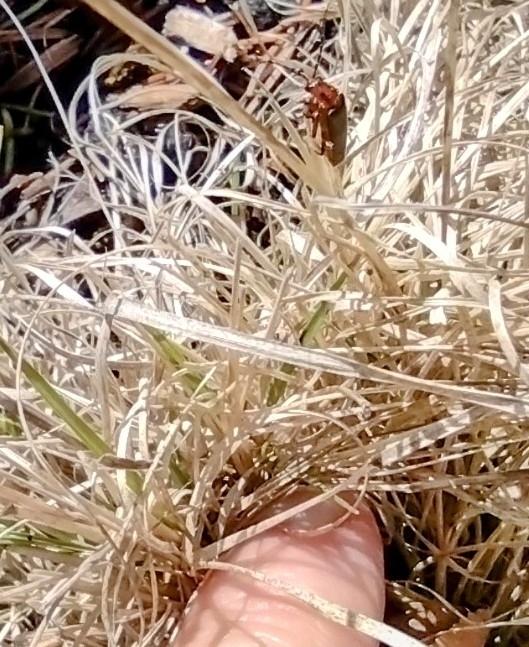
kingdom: Animalia
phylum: Arthropoda
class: Insecta
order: Coleoptera
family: Cantharidae
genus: Atalantycha
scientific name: Atalantycha bilineata
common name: Two-lined leatherwing
